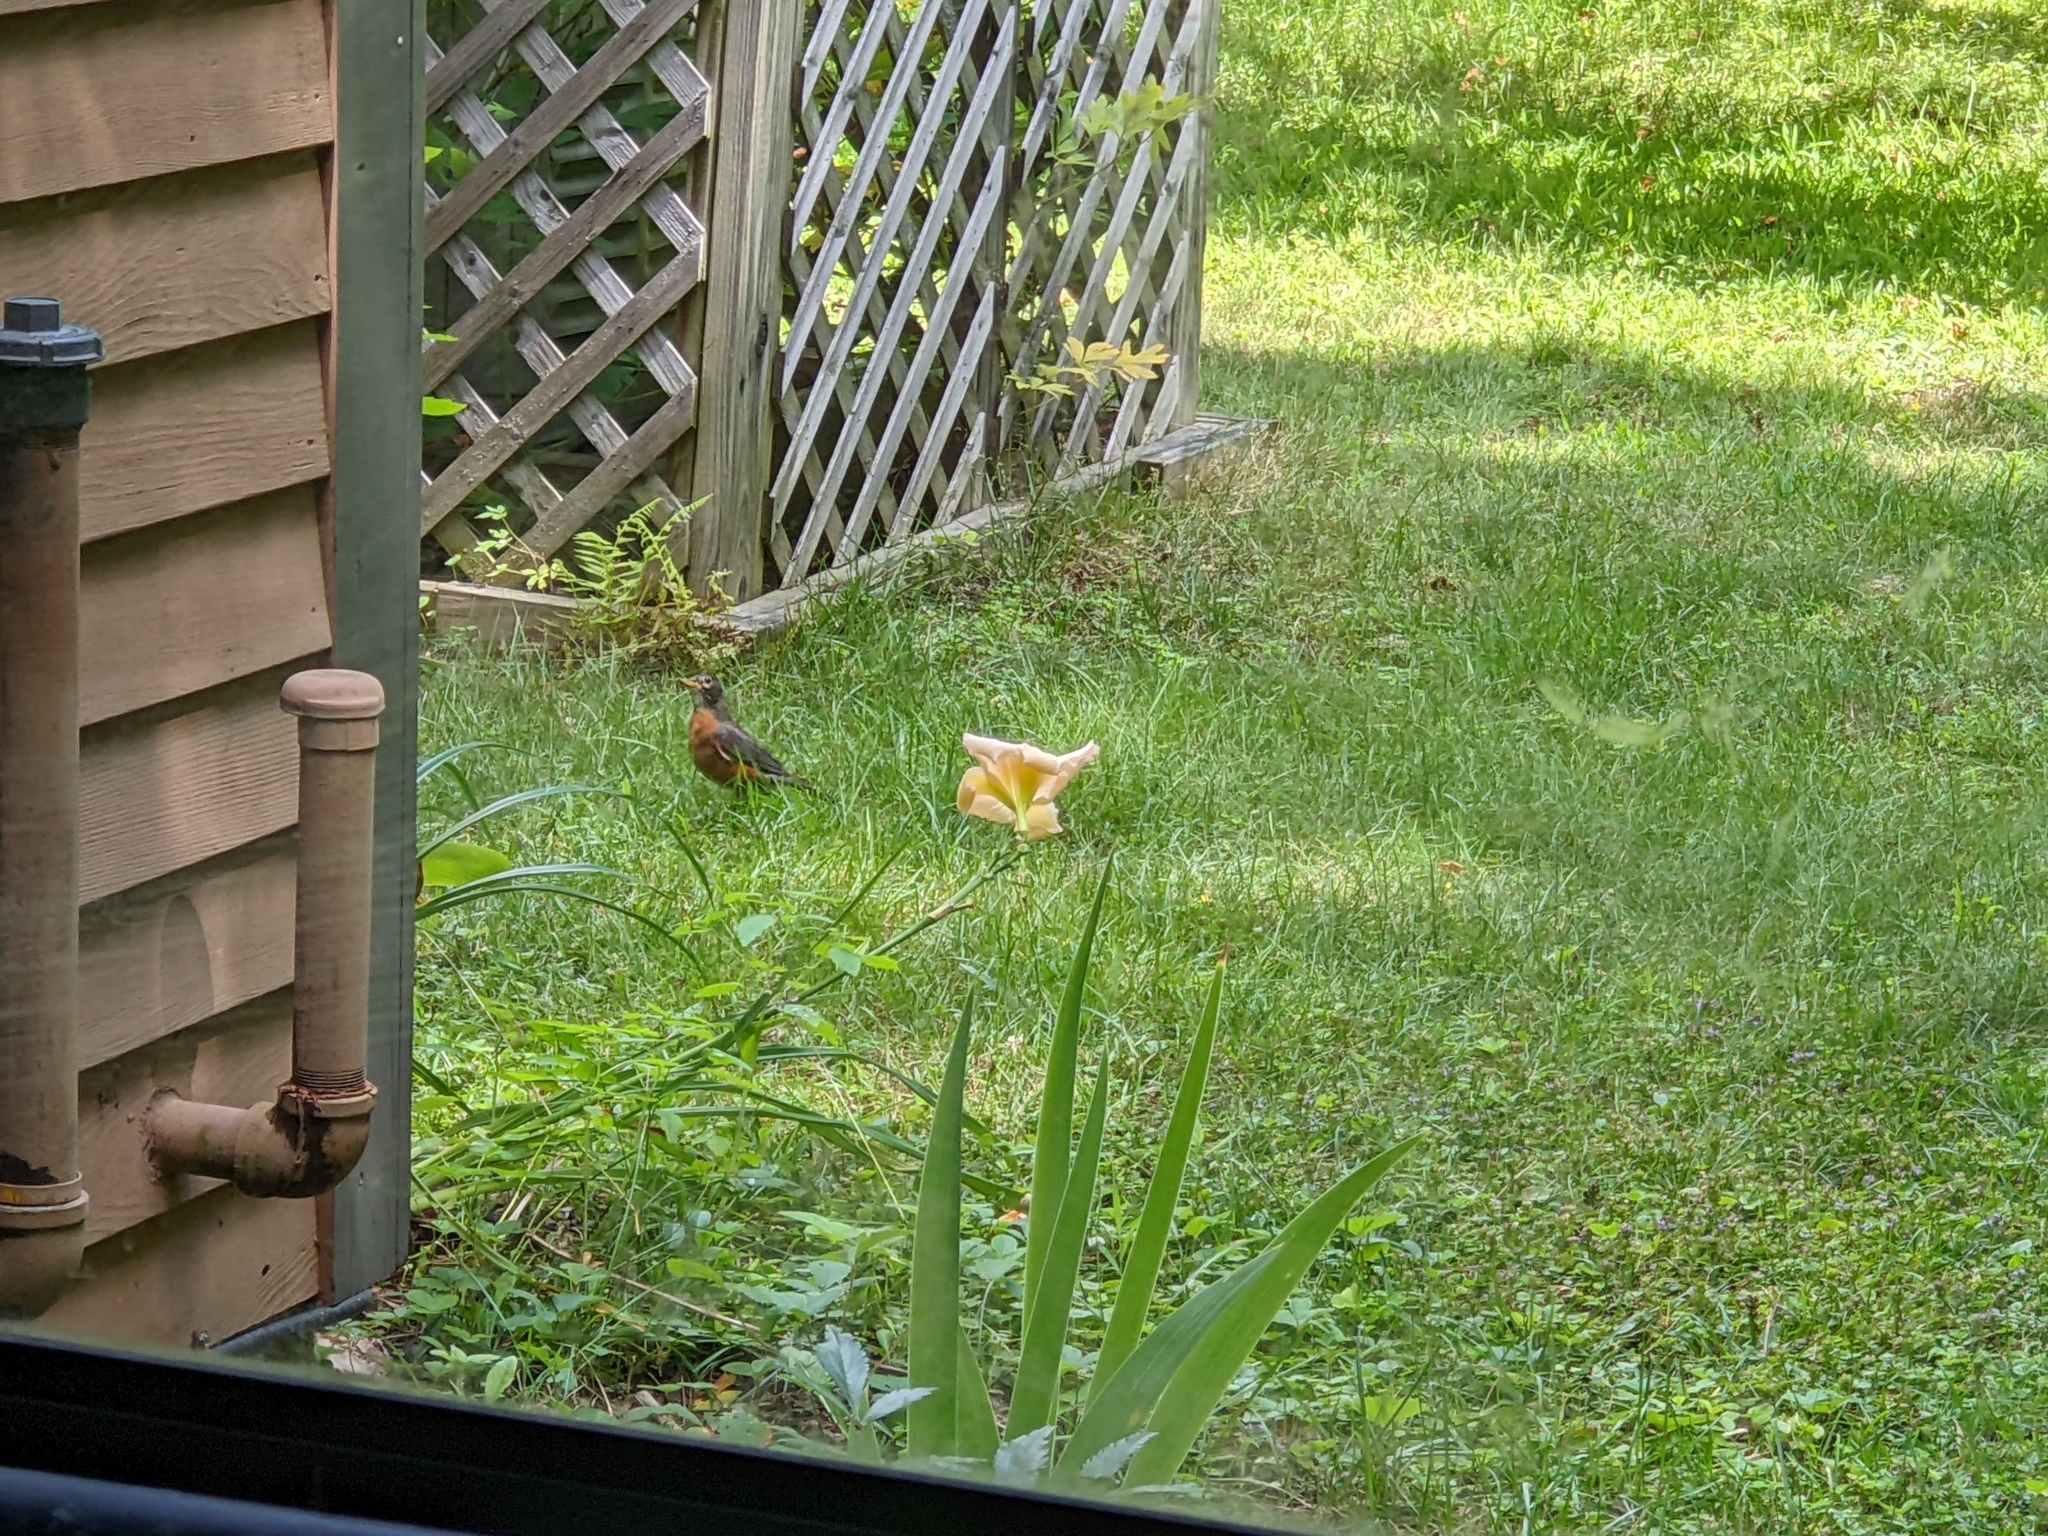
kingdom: Animalia
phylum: Chordata
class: Aves
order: Passeriformes
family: Turdidae
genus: Turdus
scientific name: Turdus migratorius
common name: American robin
